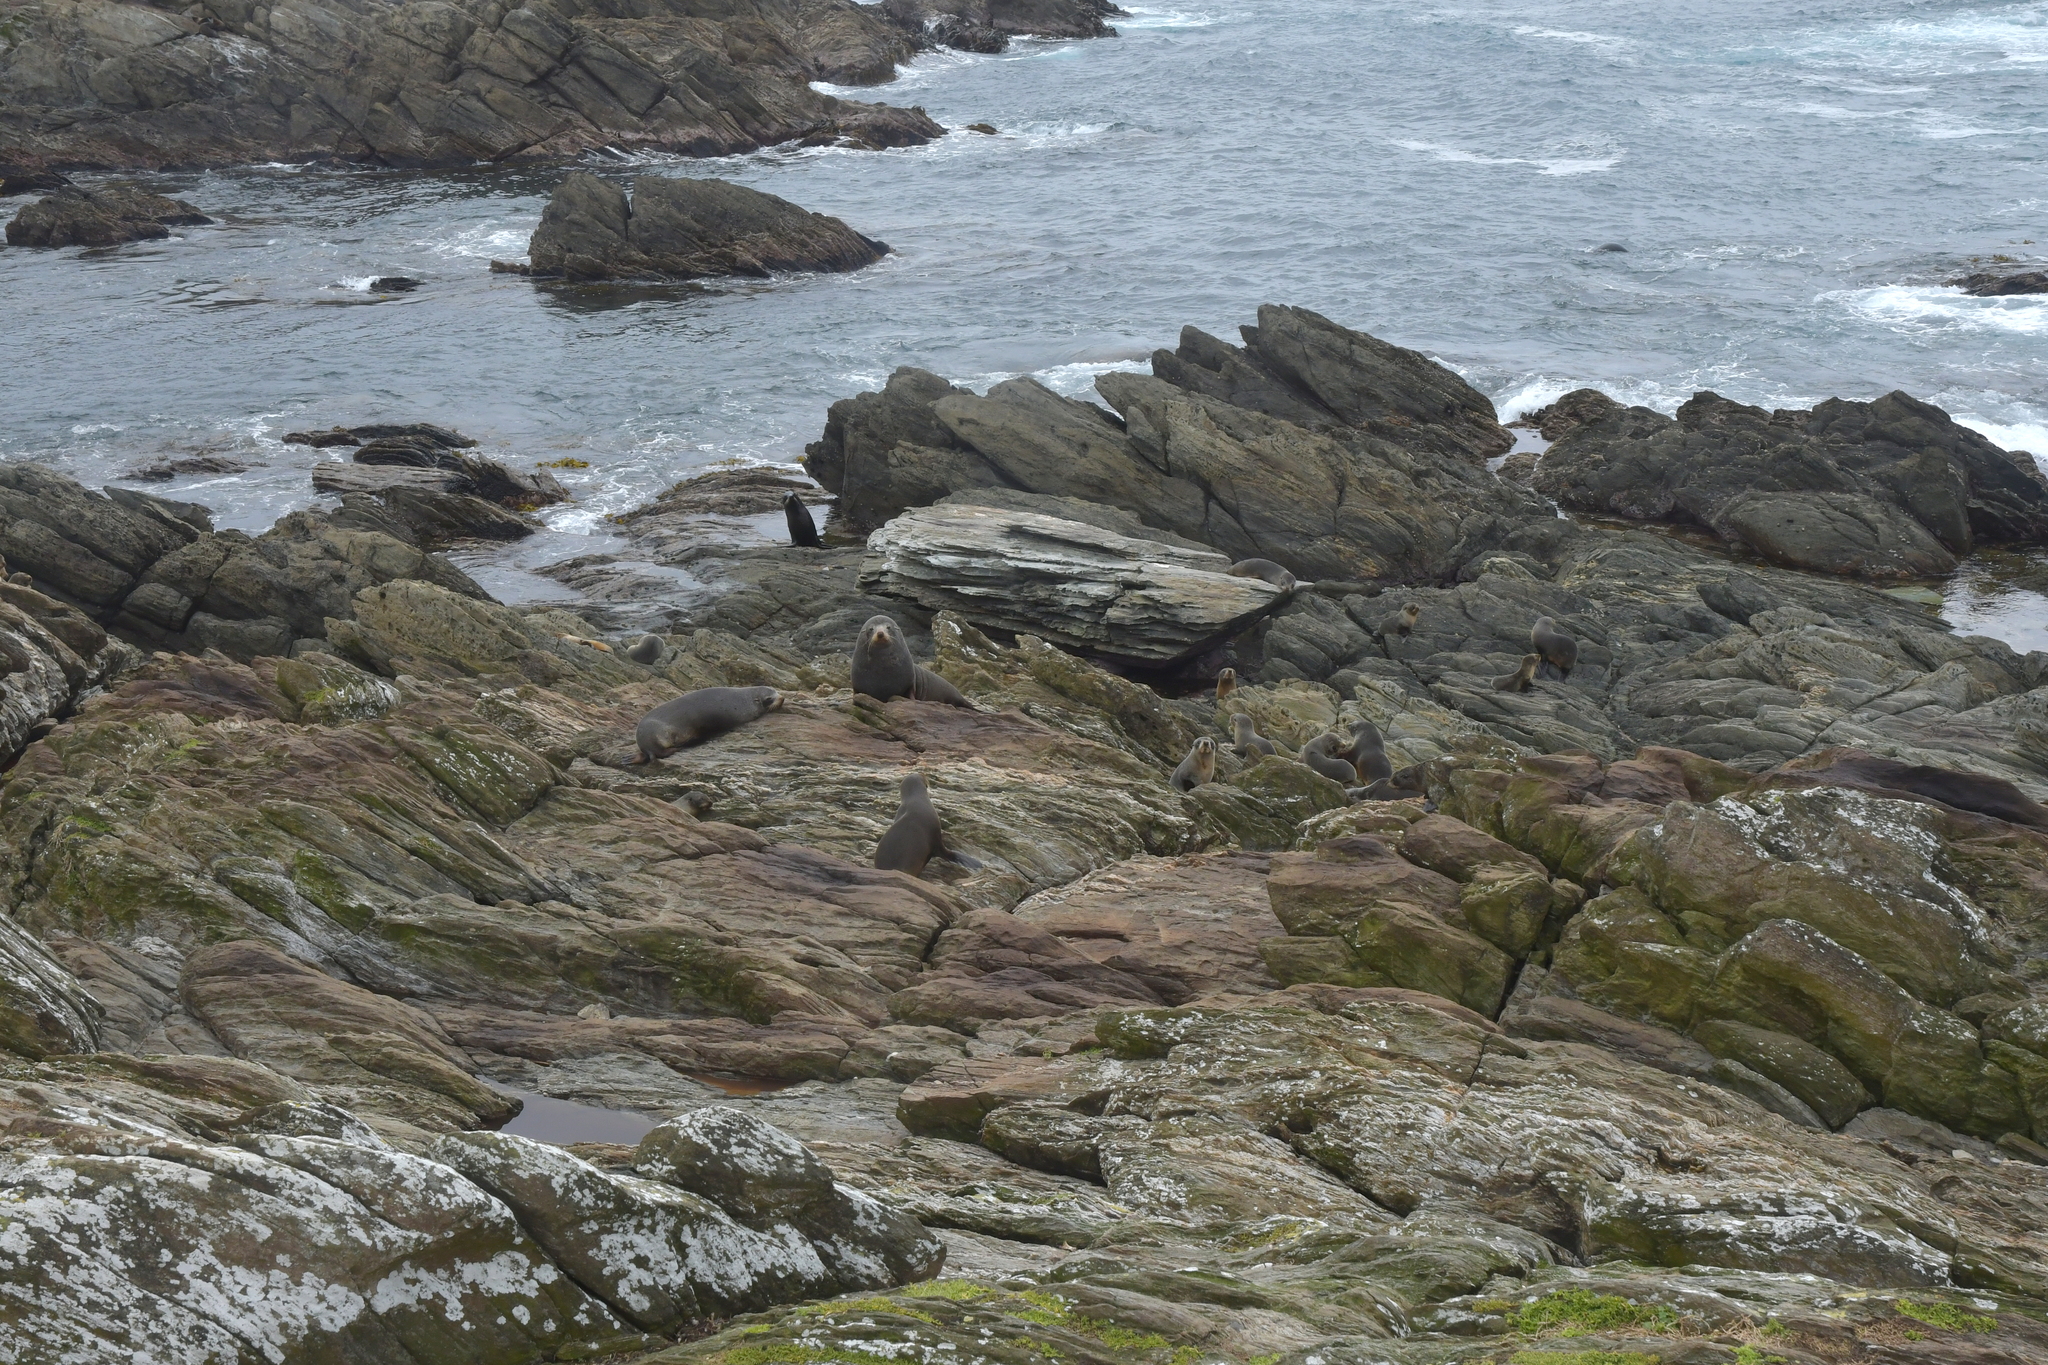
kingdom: Animalia
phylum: Chordata
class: Mammalia
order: Carnivora
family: Otariidae
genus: Arctocephalus
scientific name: Arctocephalus forsteri
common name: New zealand fur seal
